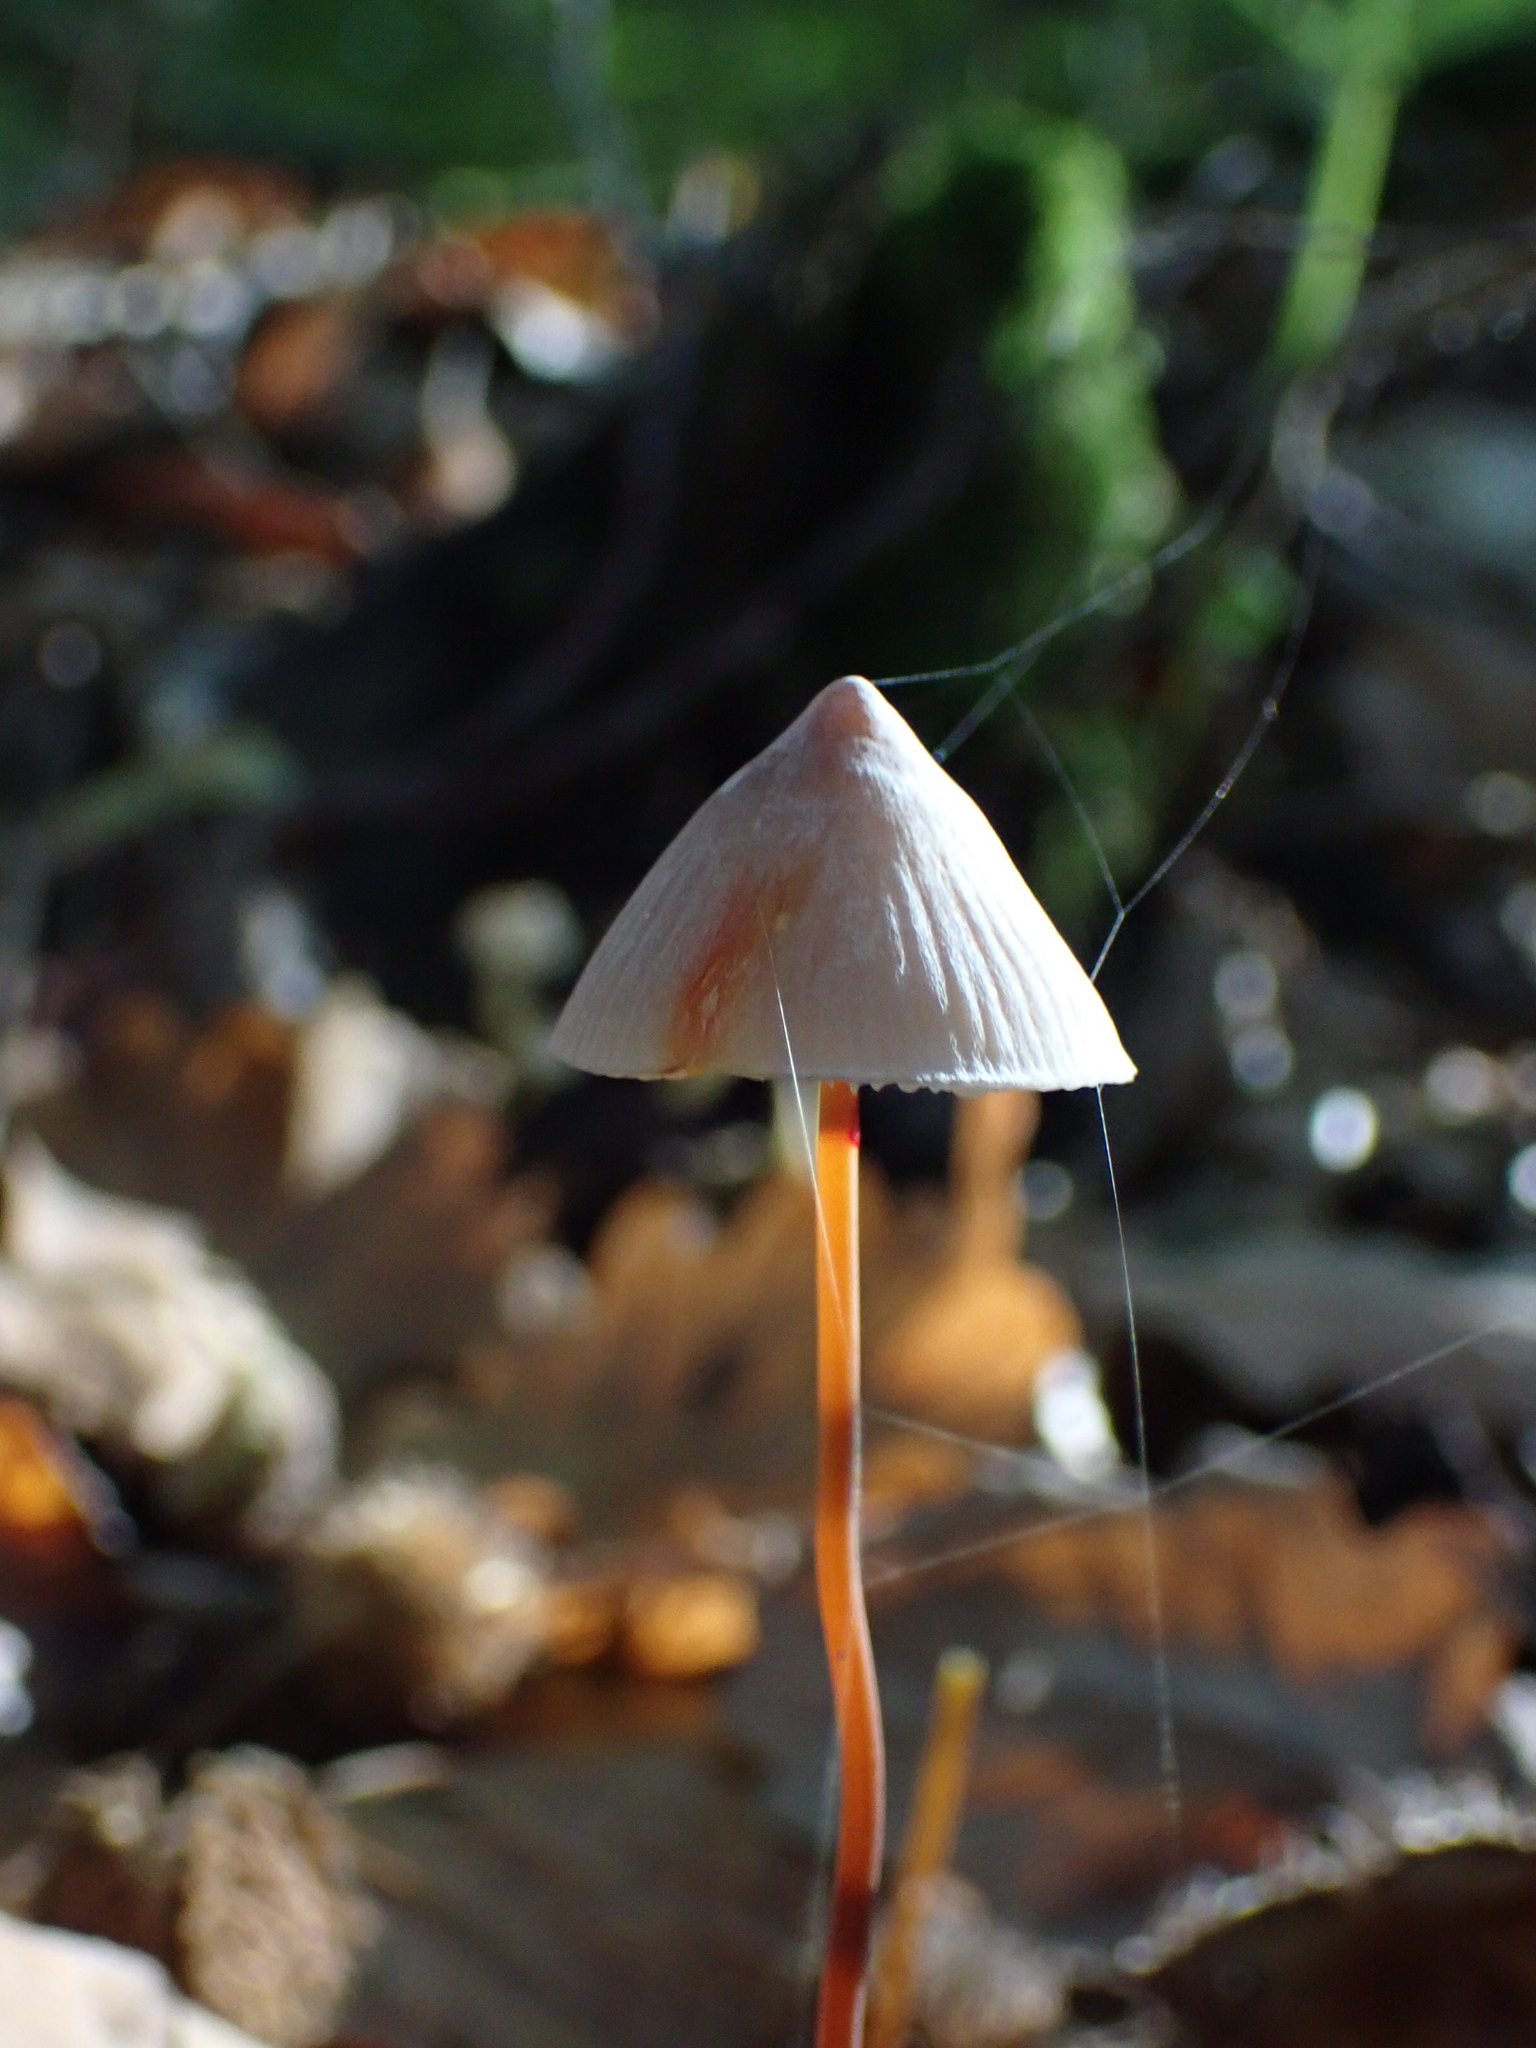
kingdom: Fungi
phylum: Basidiomycota
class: Agaricomycetes
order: Agaricales
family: Mycenaceae
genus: Mycena
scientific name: Mycena crocata
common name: Saffrondrop bonnet
